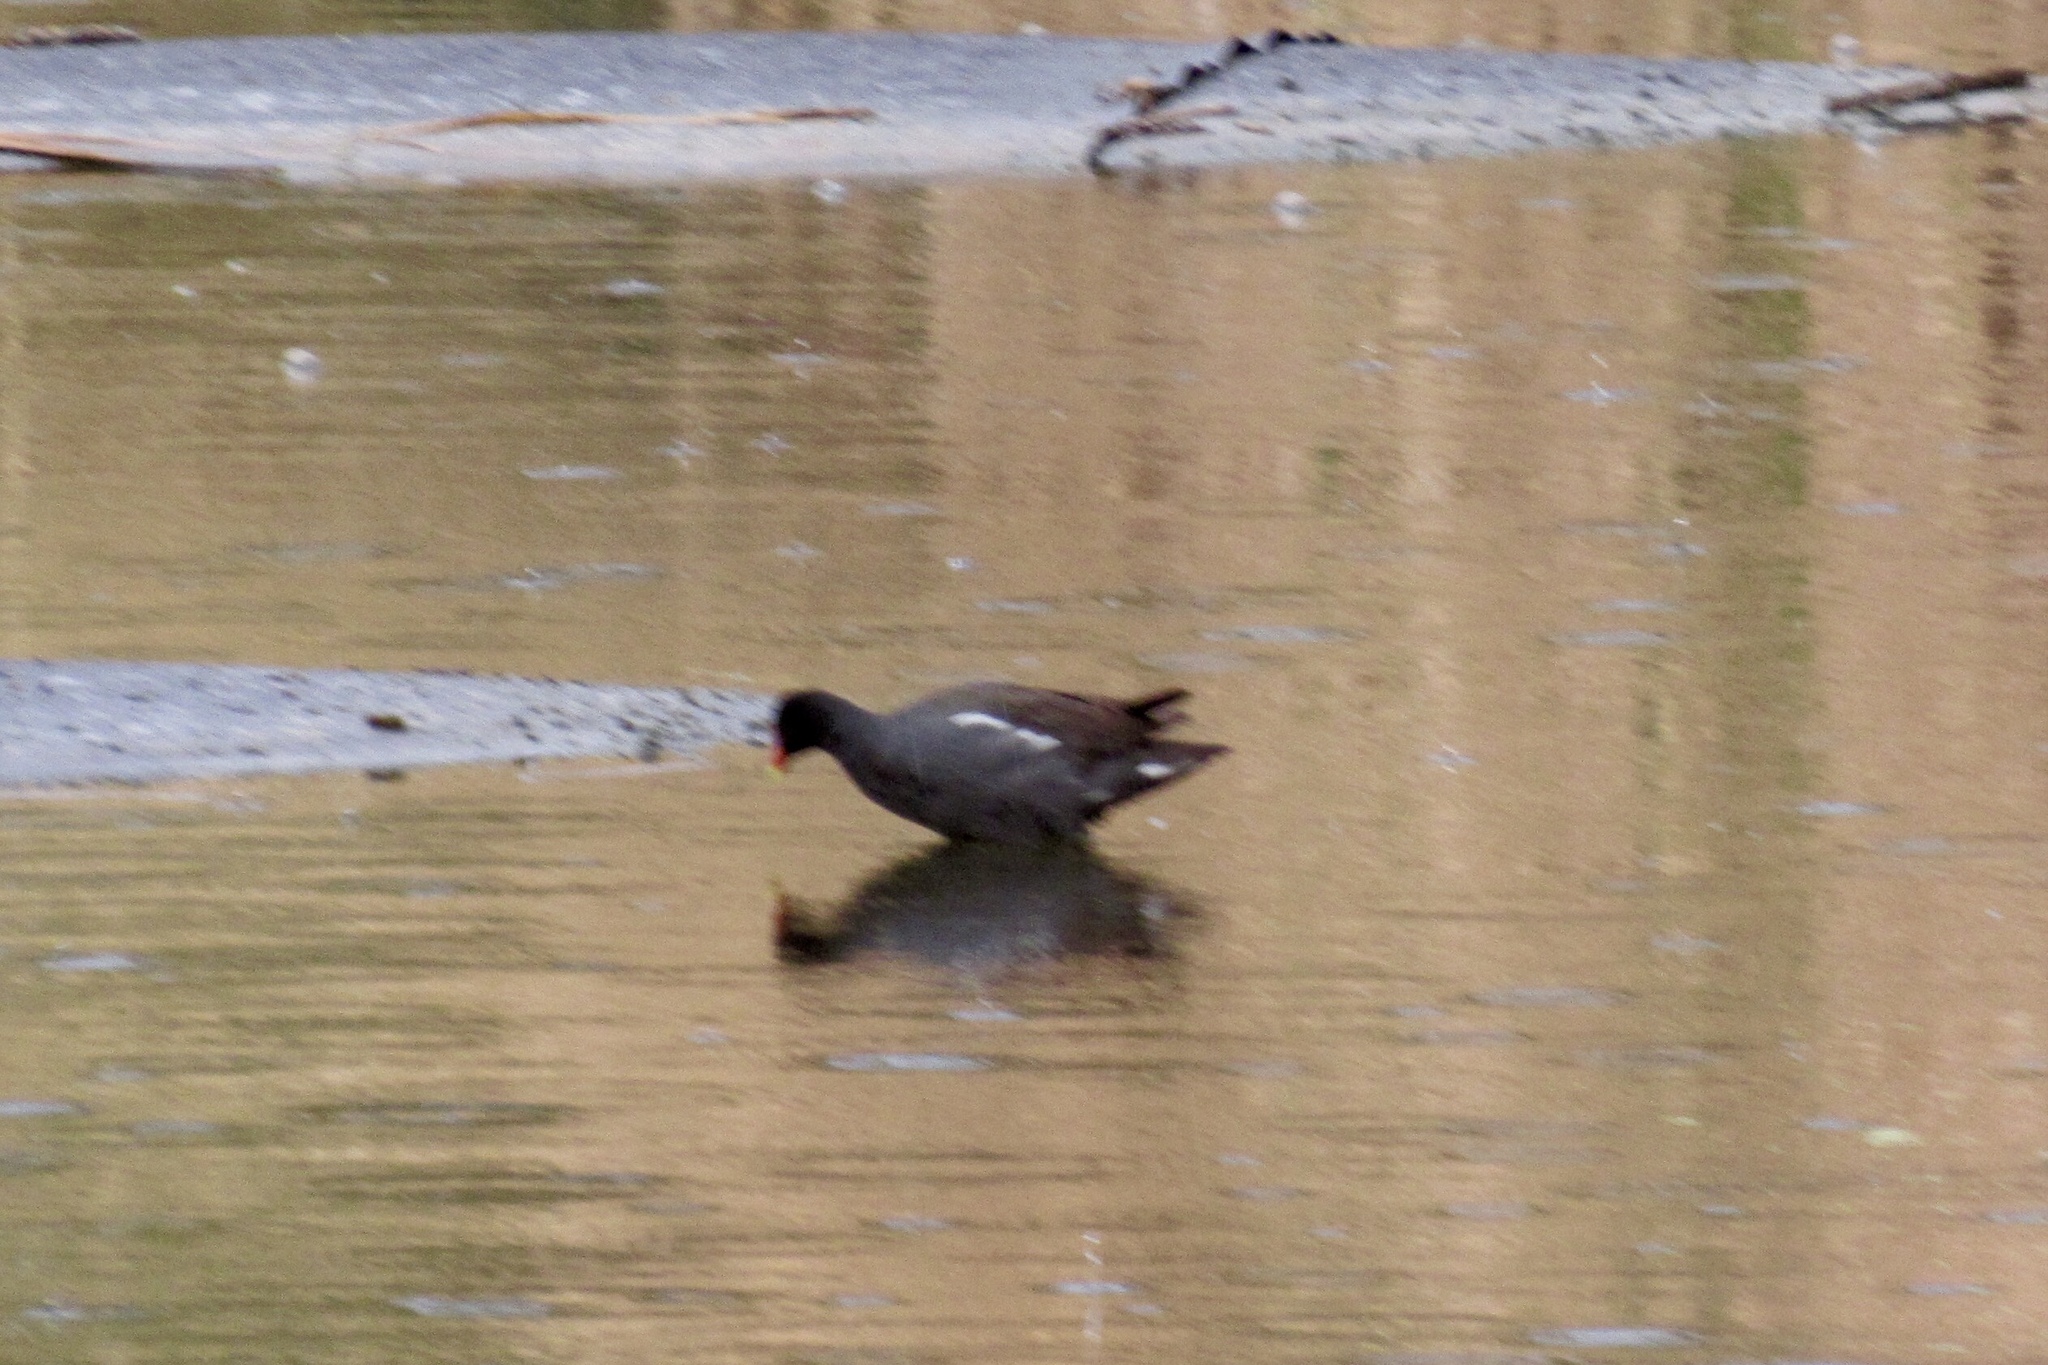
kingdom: Animalia
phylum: Chordata
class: Aves
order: Gruiformes
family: Rallidae
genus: Gallinula
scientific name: Gallinula chloropus
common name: Common moorhen
